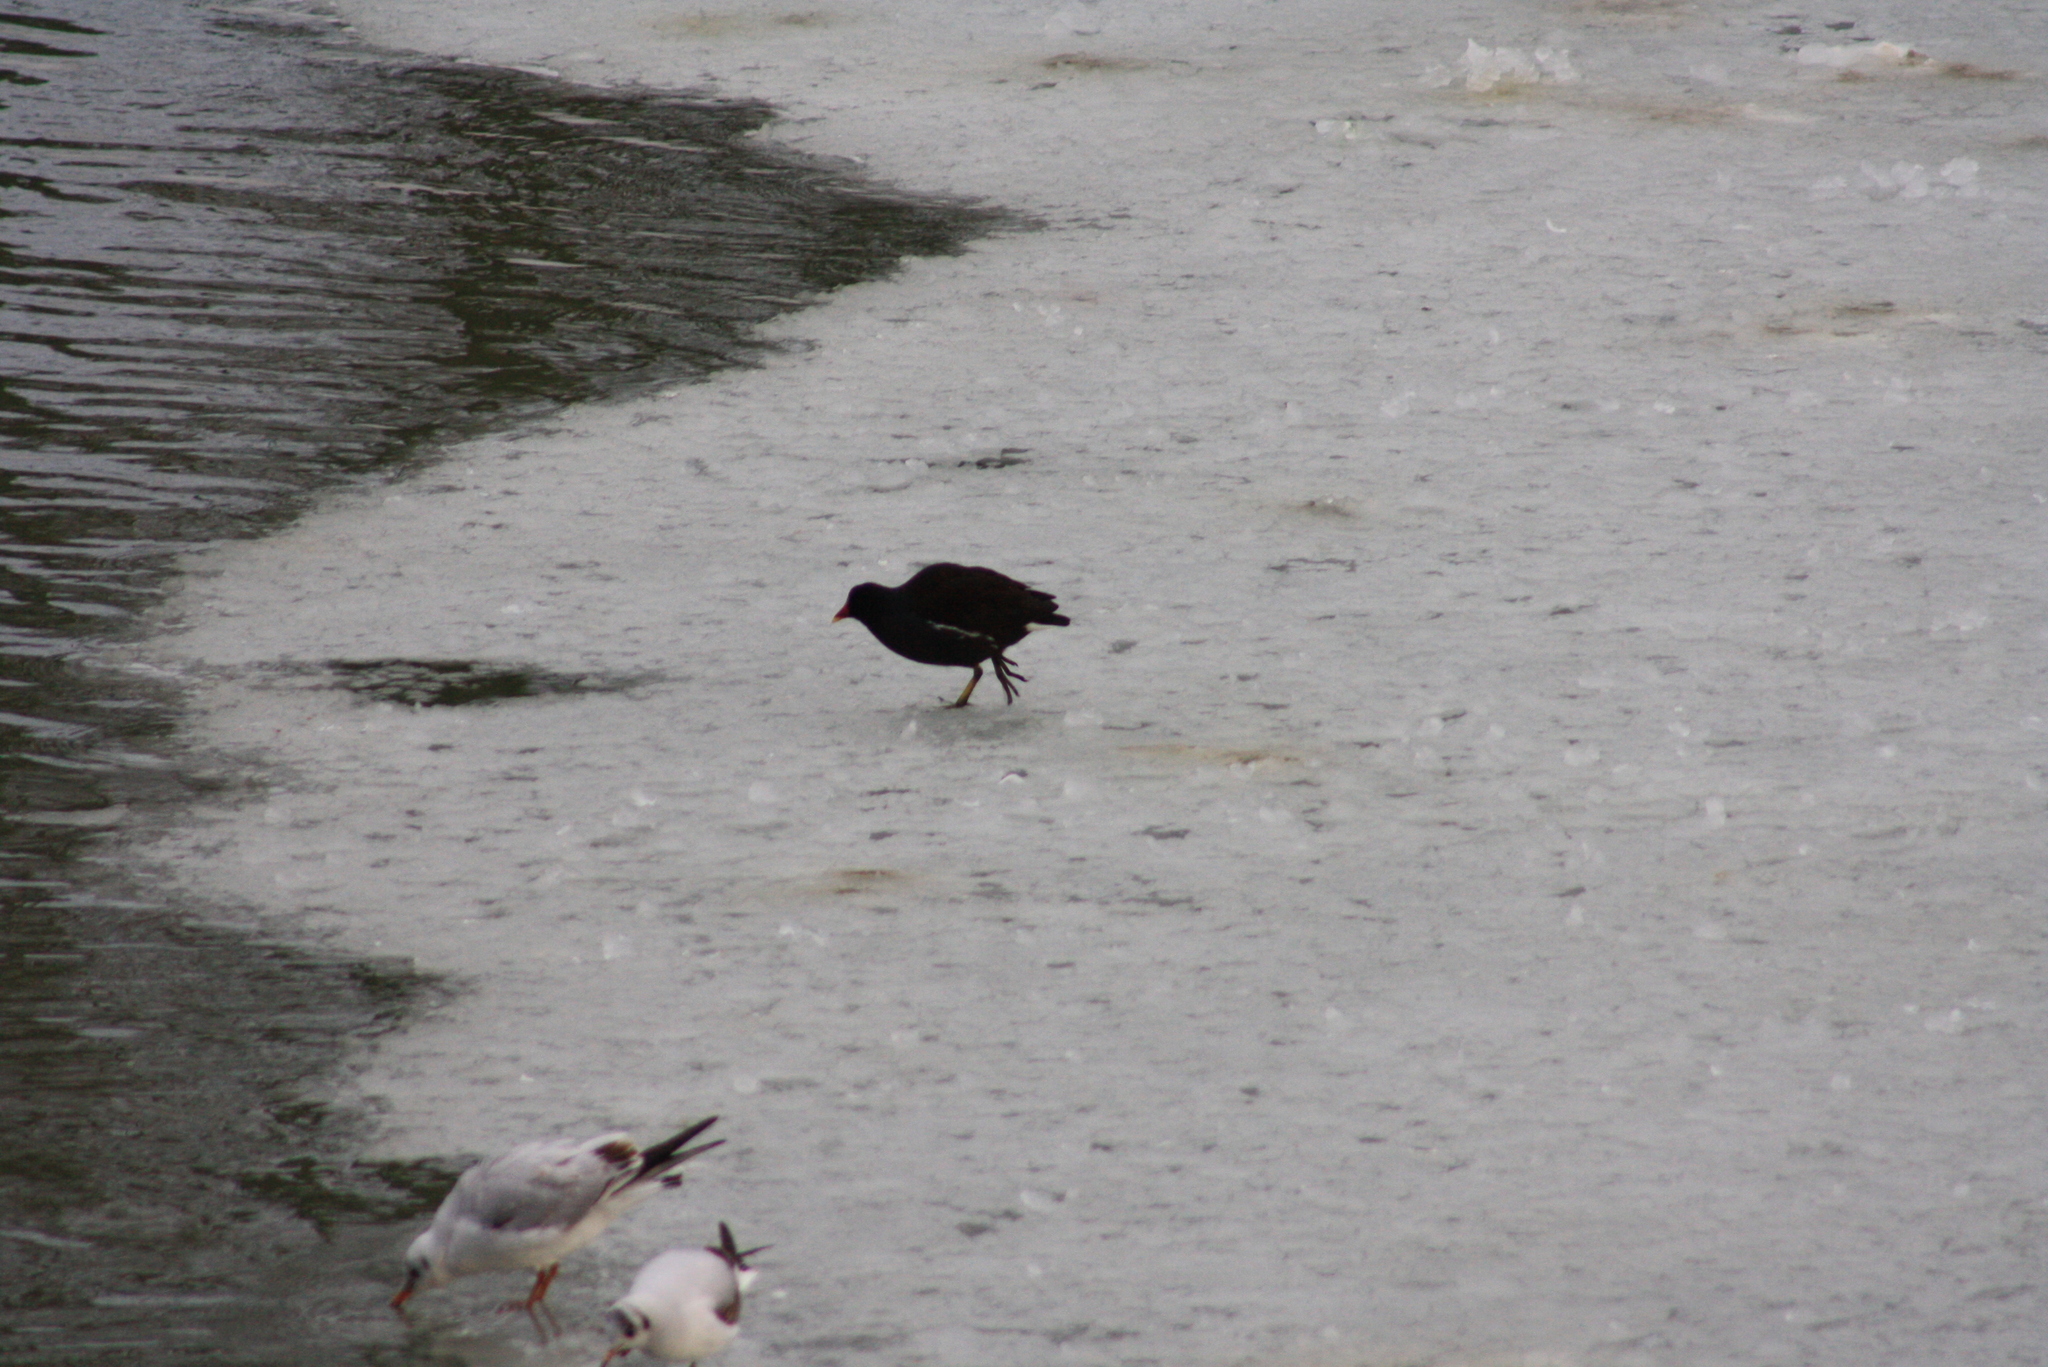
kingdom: Animalia
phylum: Chordata
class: Aves
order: Gruiformes
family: Rallidae
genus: Gallinula
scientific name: Gallinula chloropus
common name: Common moorhen
